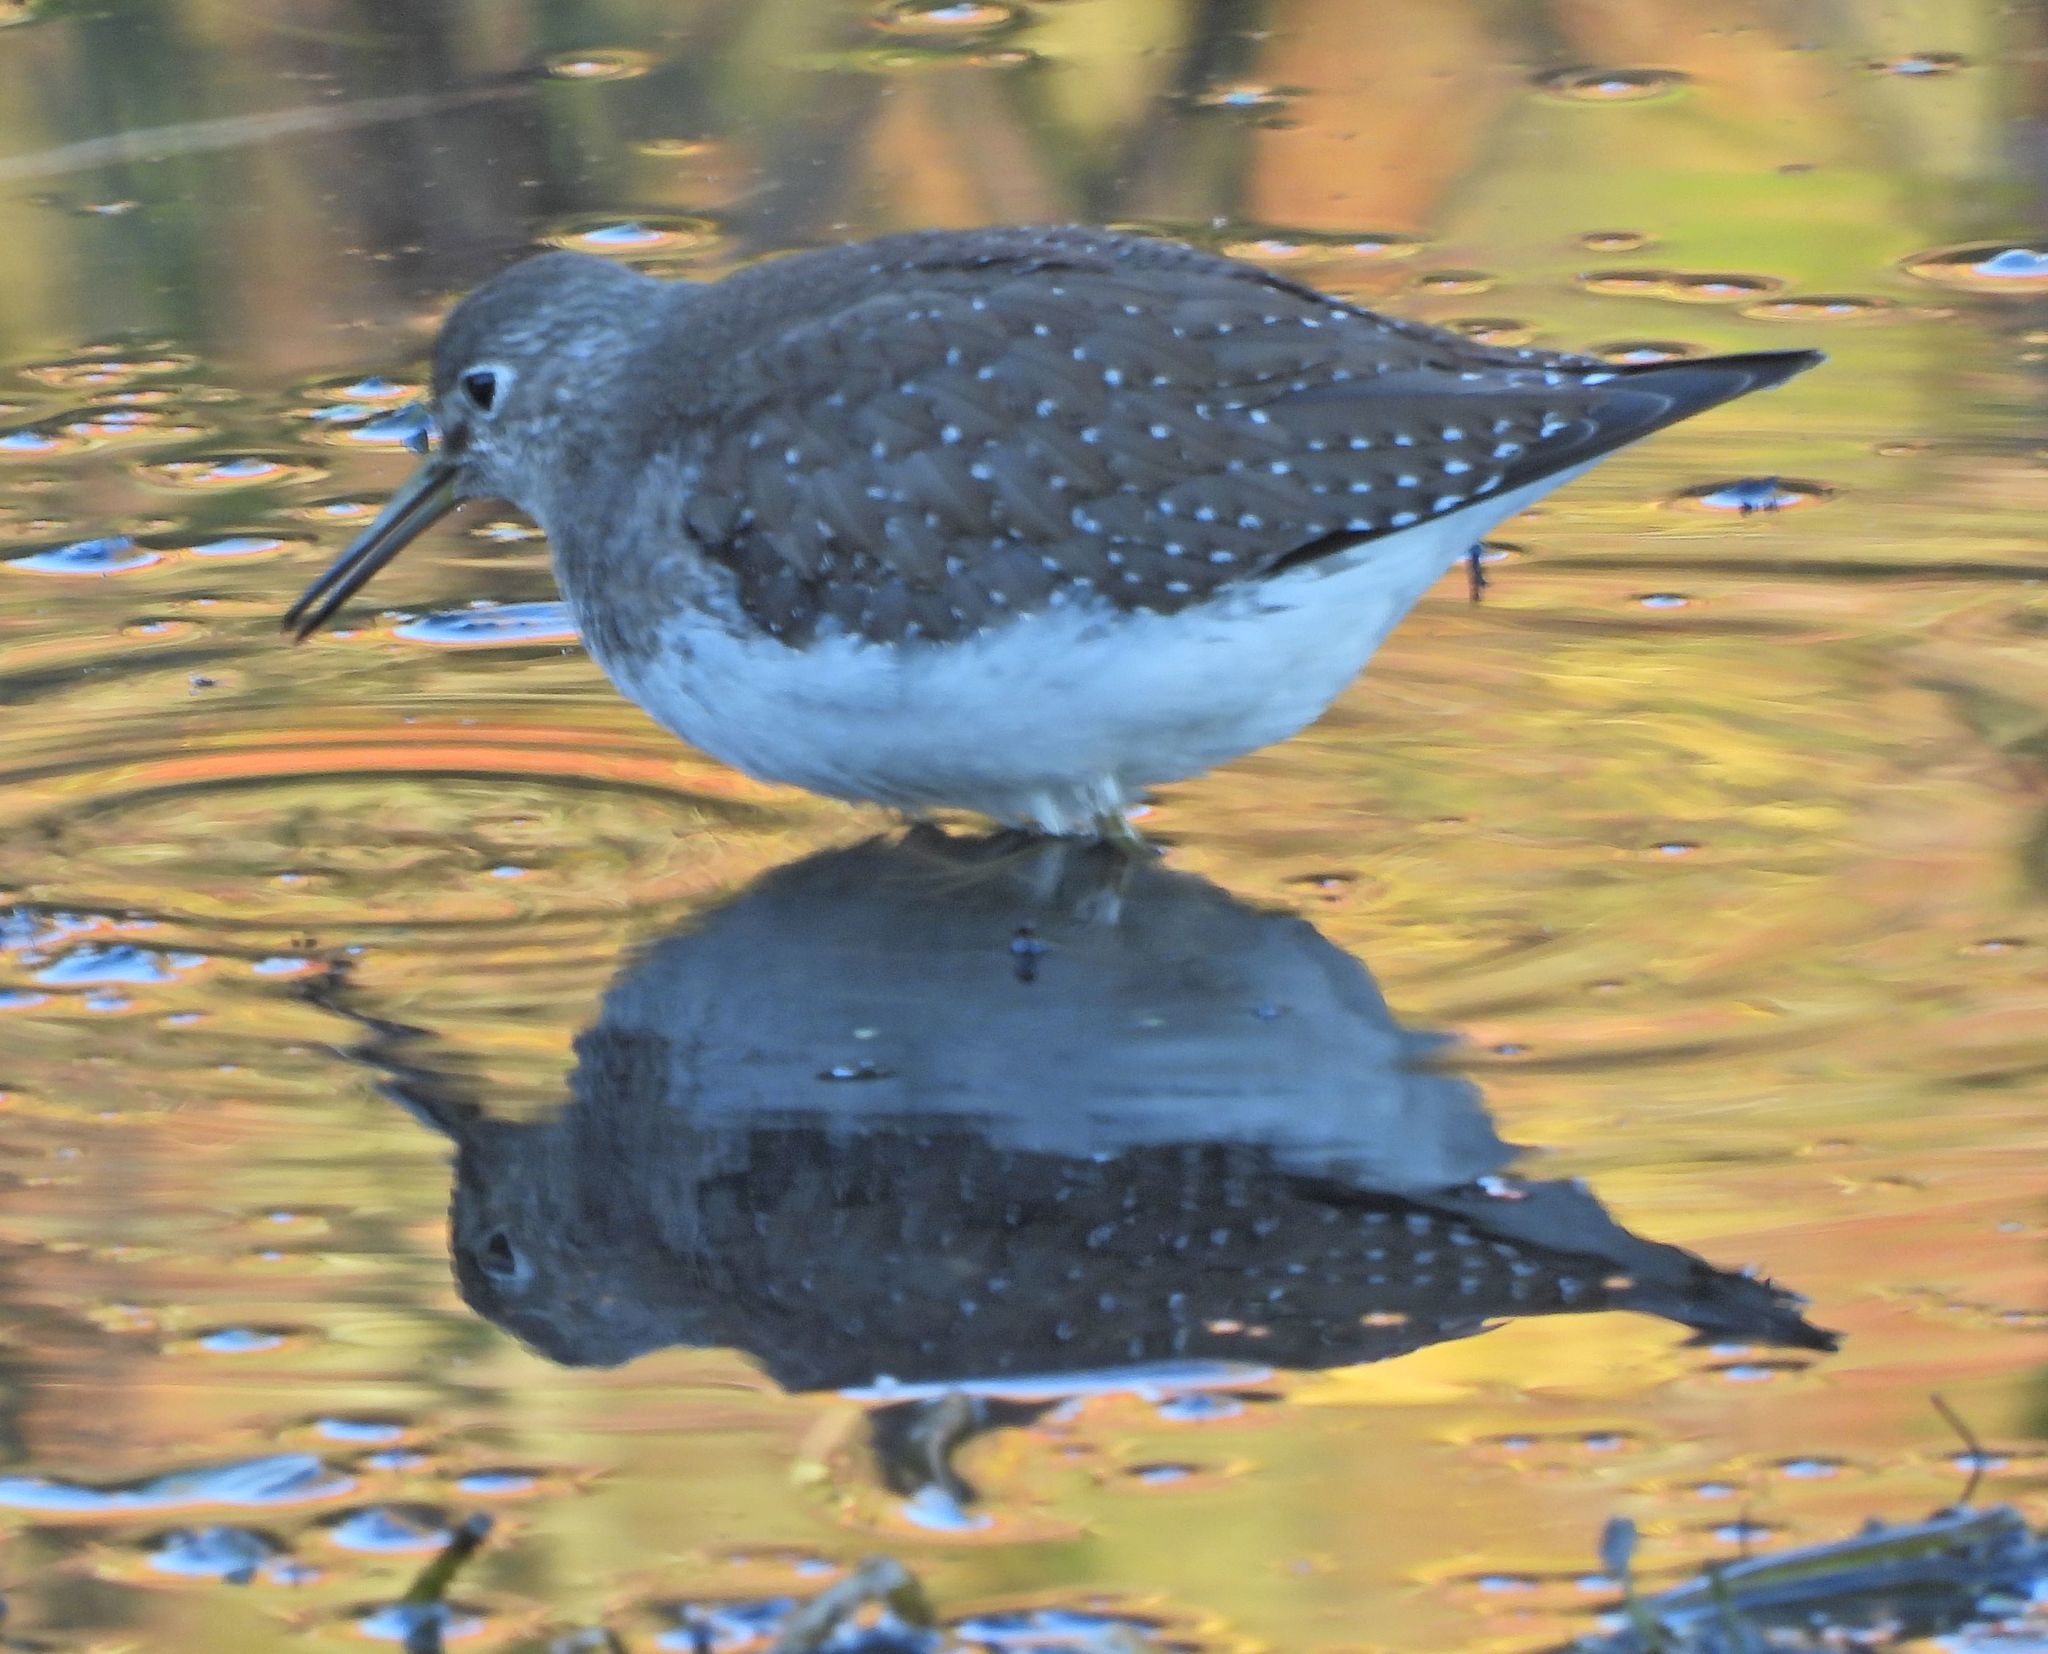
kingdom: Animalia
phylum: Chordata
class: Aves
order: Charadriiformes
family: Scolopacidae
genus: Tringa
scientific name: Tringa solitaria
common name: Solitary sandpiper
